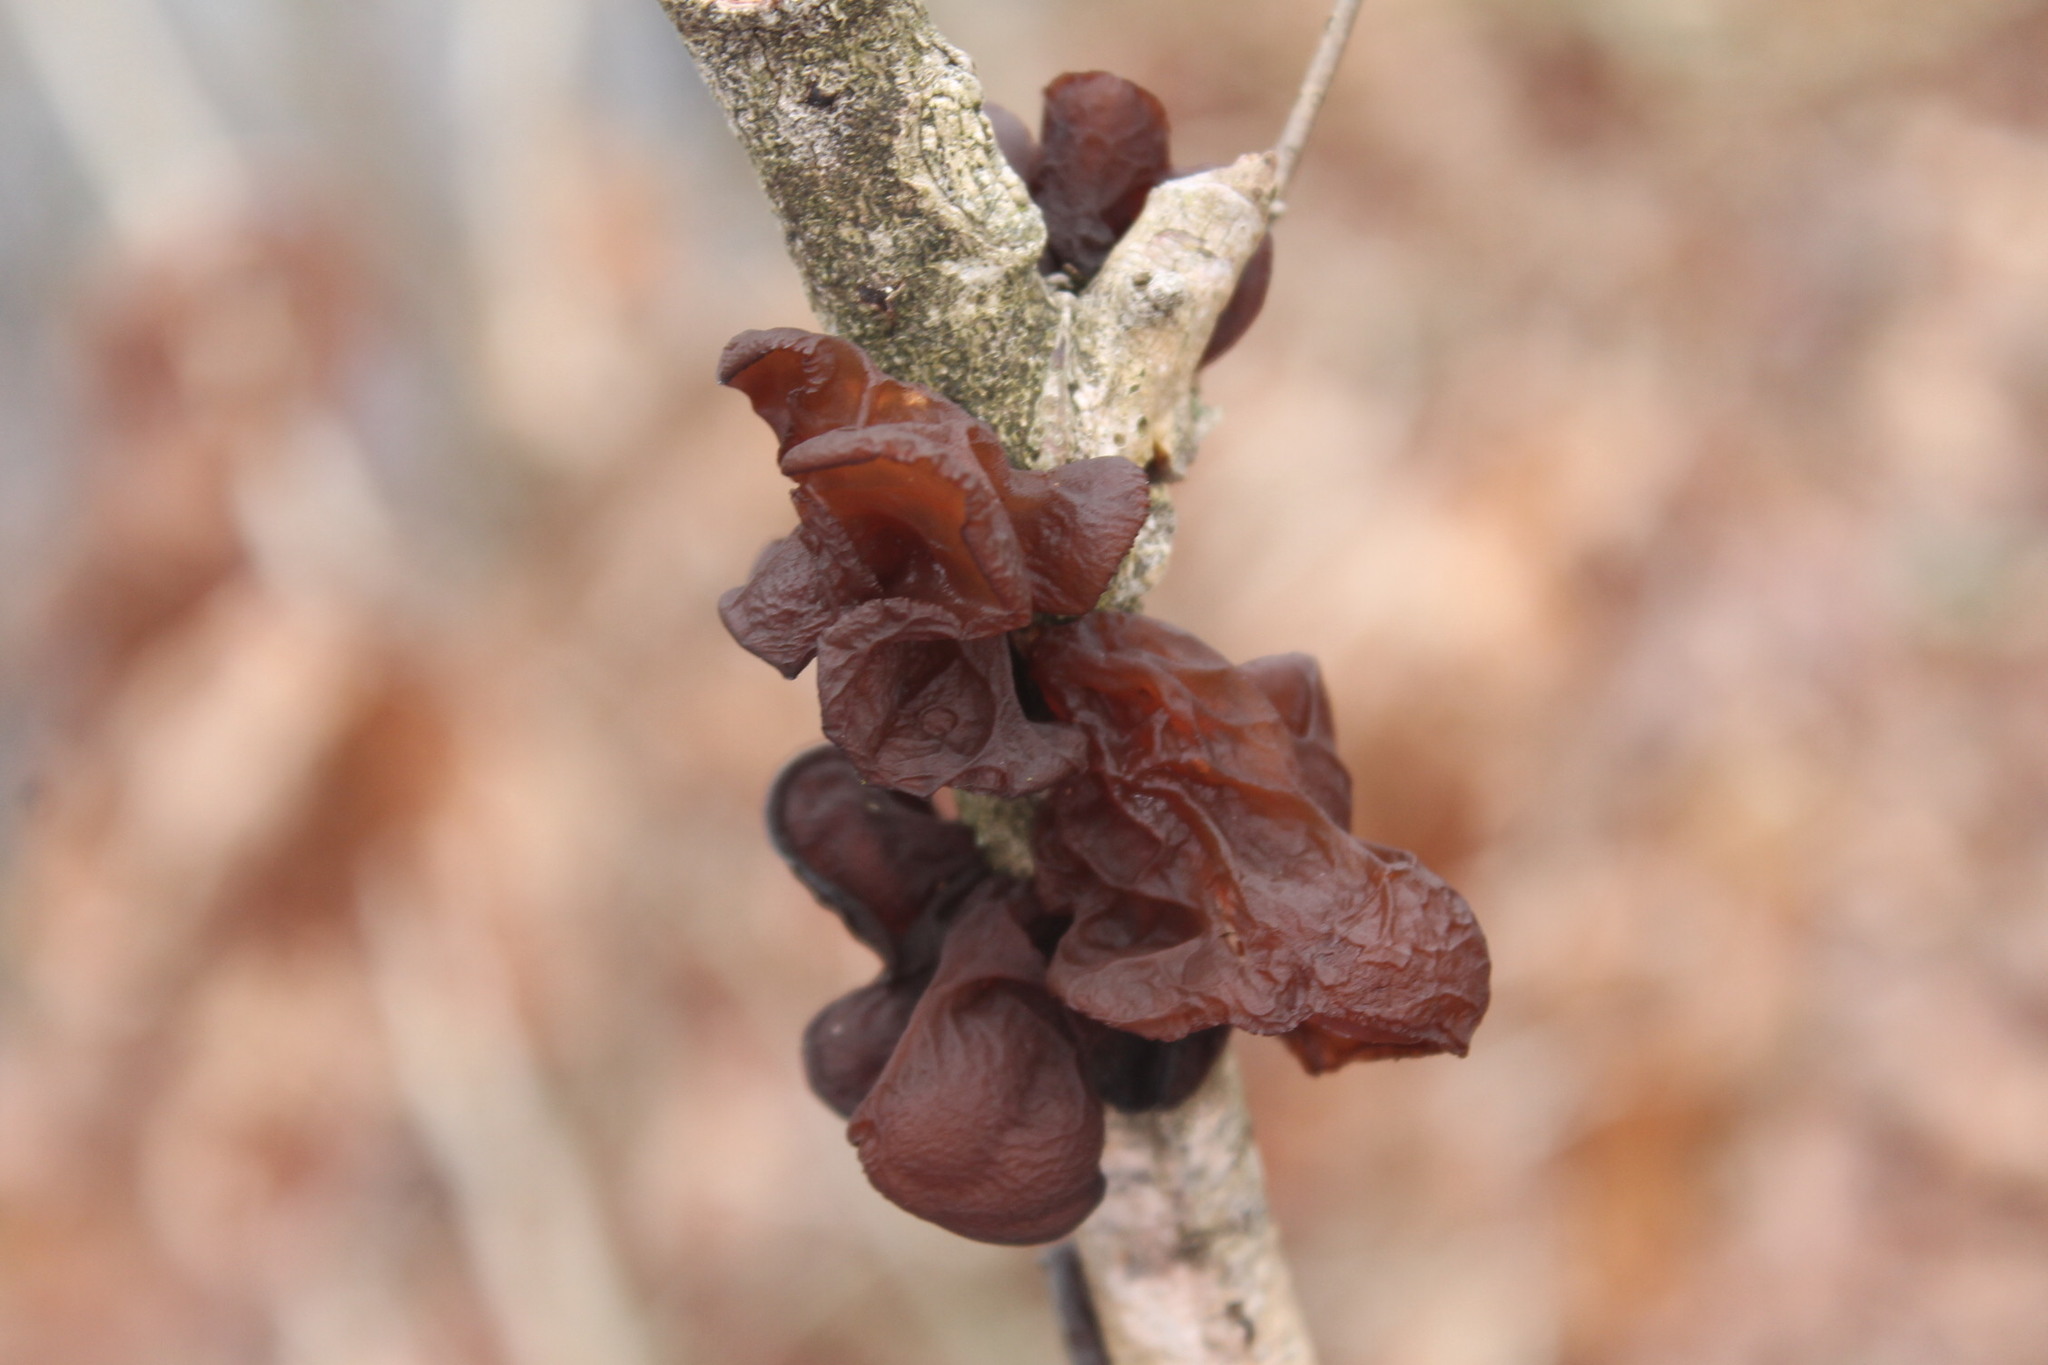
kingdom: Fungi
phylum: Basidiomycota
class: Agaricomycetes
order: Auriculariales
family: Auriculariaceae
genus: Exidia
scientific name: Exidia
